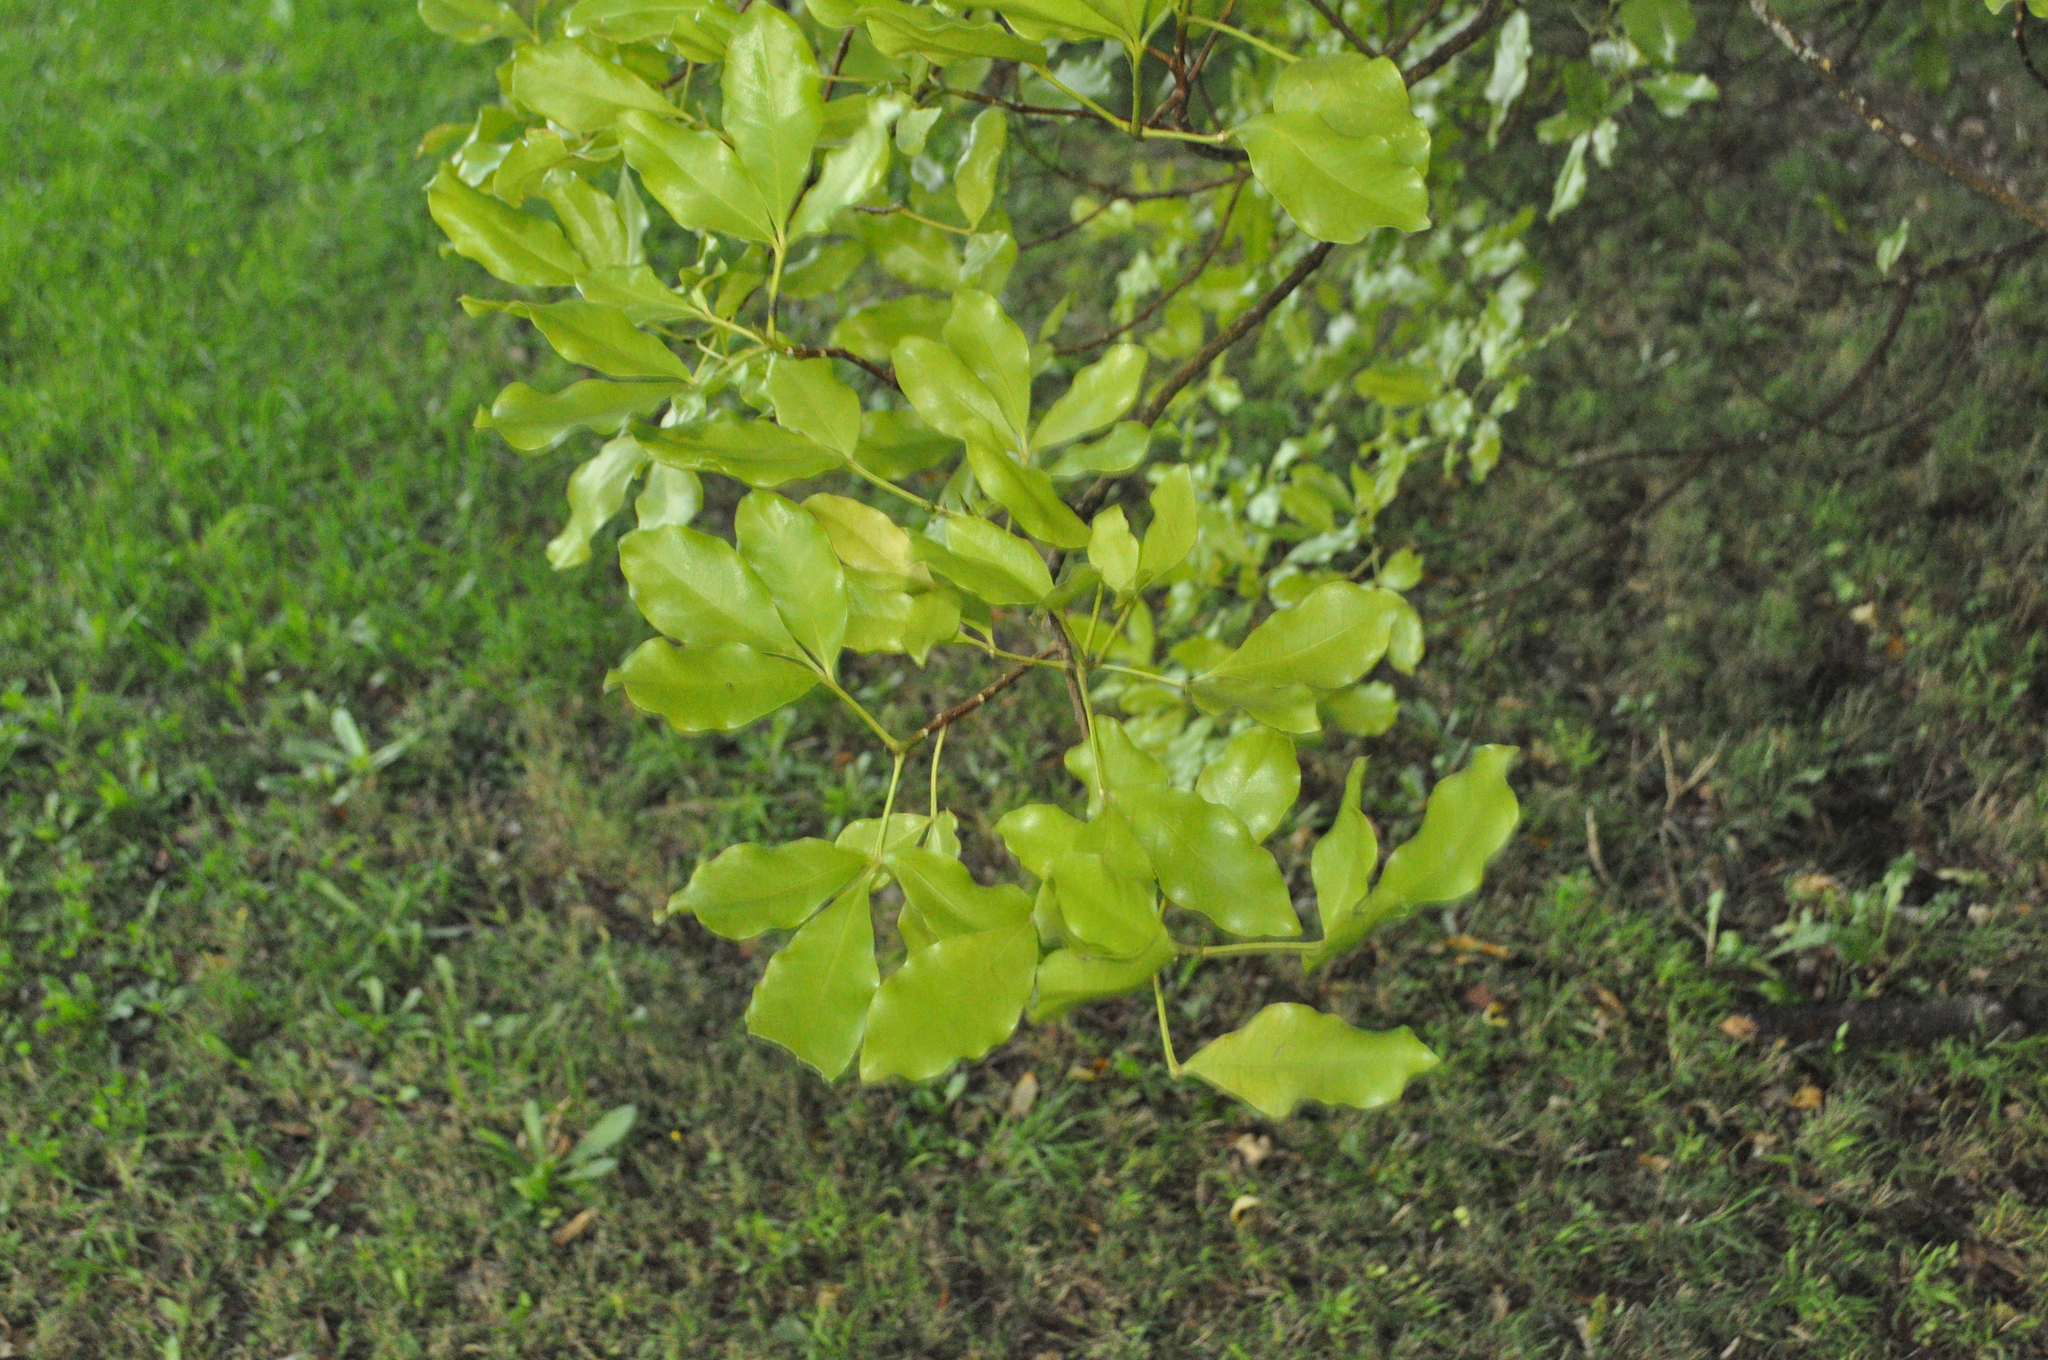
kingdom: Plantae
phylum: Tracheophyta
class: Magnoliopsida
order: Sapindales
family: Rutaceae
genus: Melicope
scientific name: Melicope ternata
